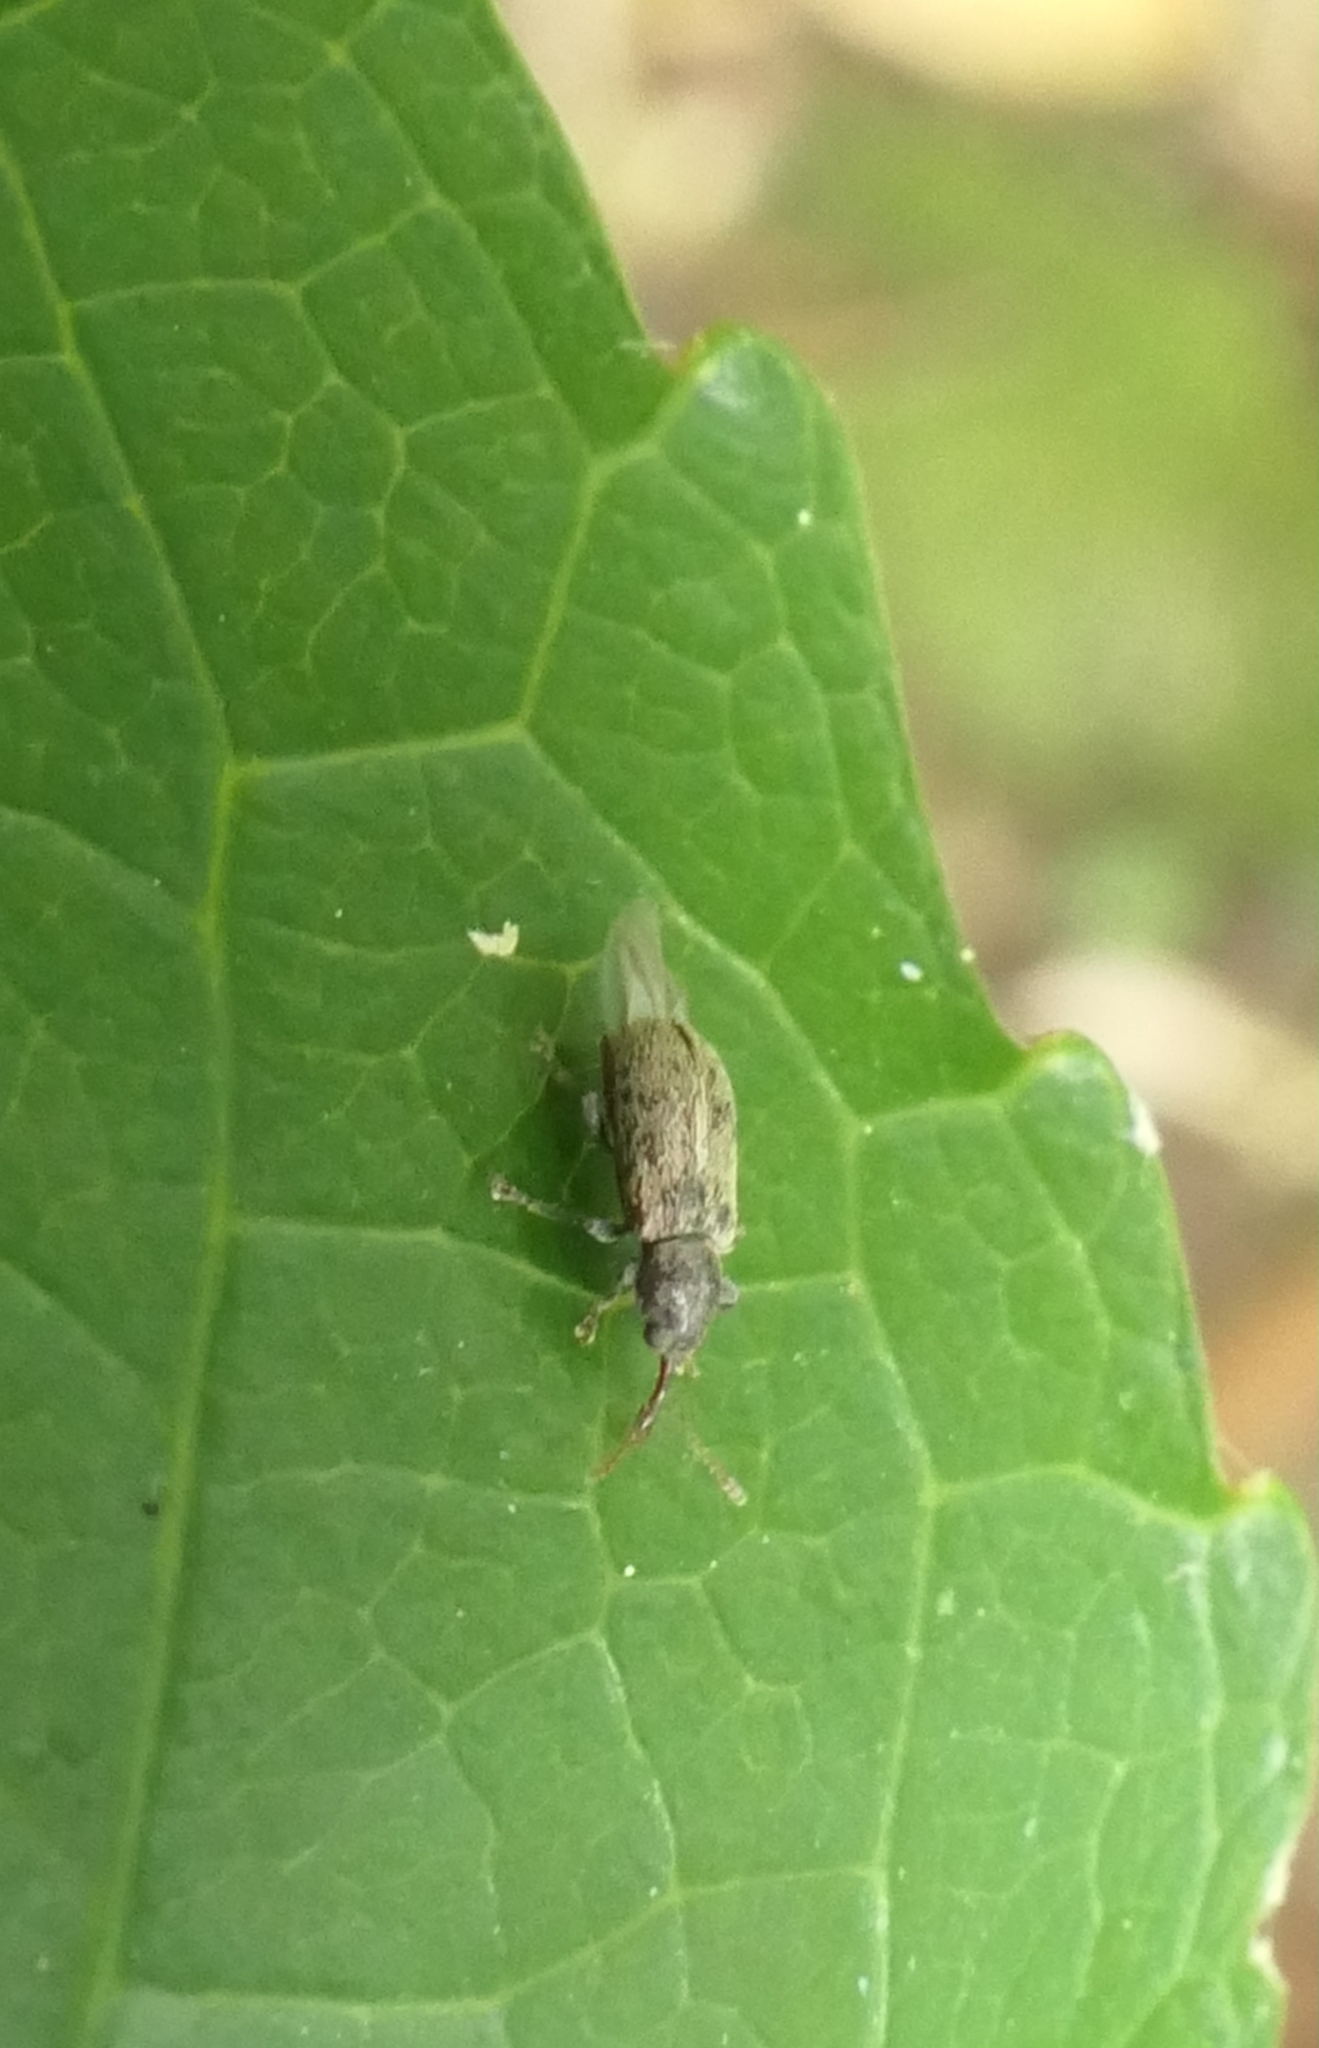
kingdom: Animalia
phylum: Arthropoda
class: Insecta
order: Coleoptera
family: Nemonychidae
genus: Rhinorhynchus
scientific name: Rhinorhynchus rufulus
